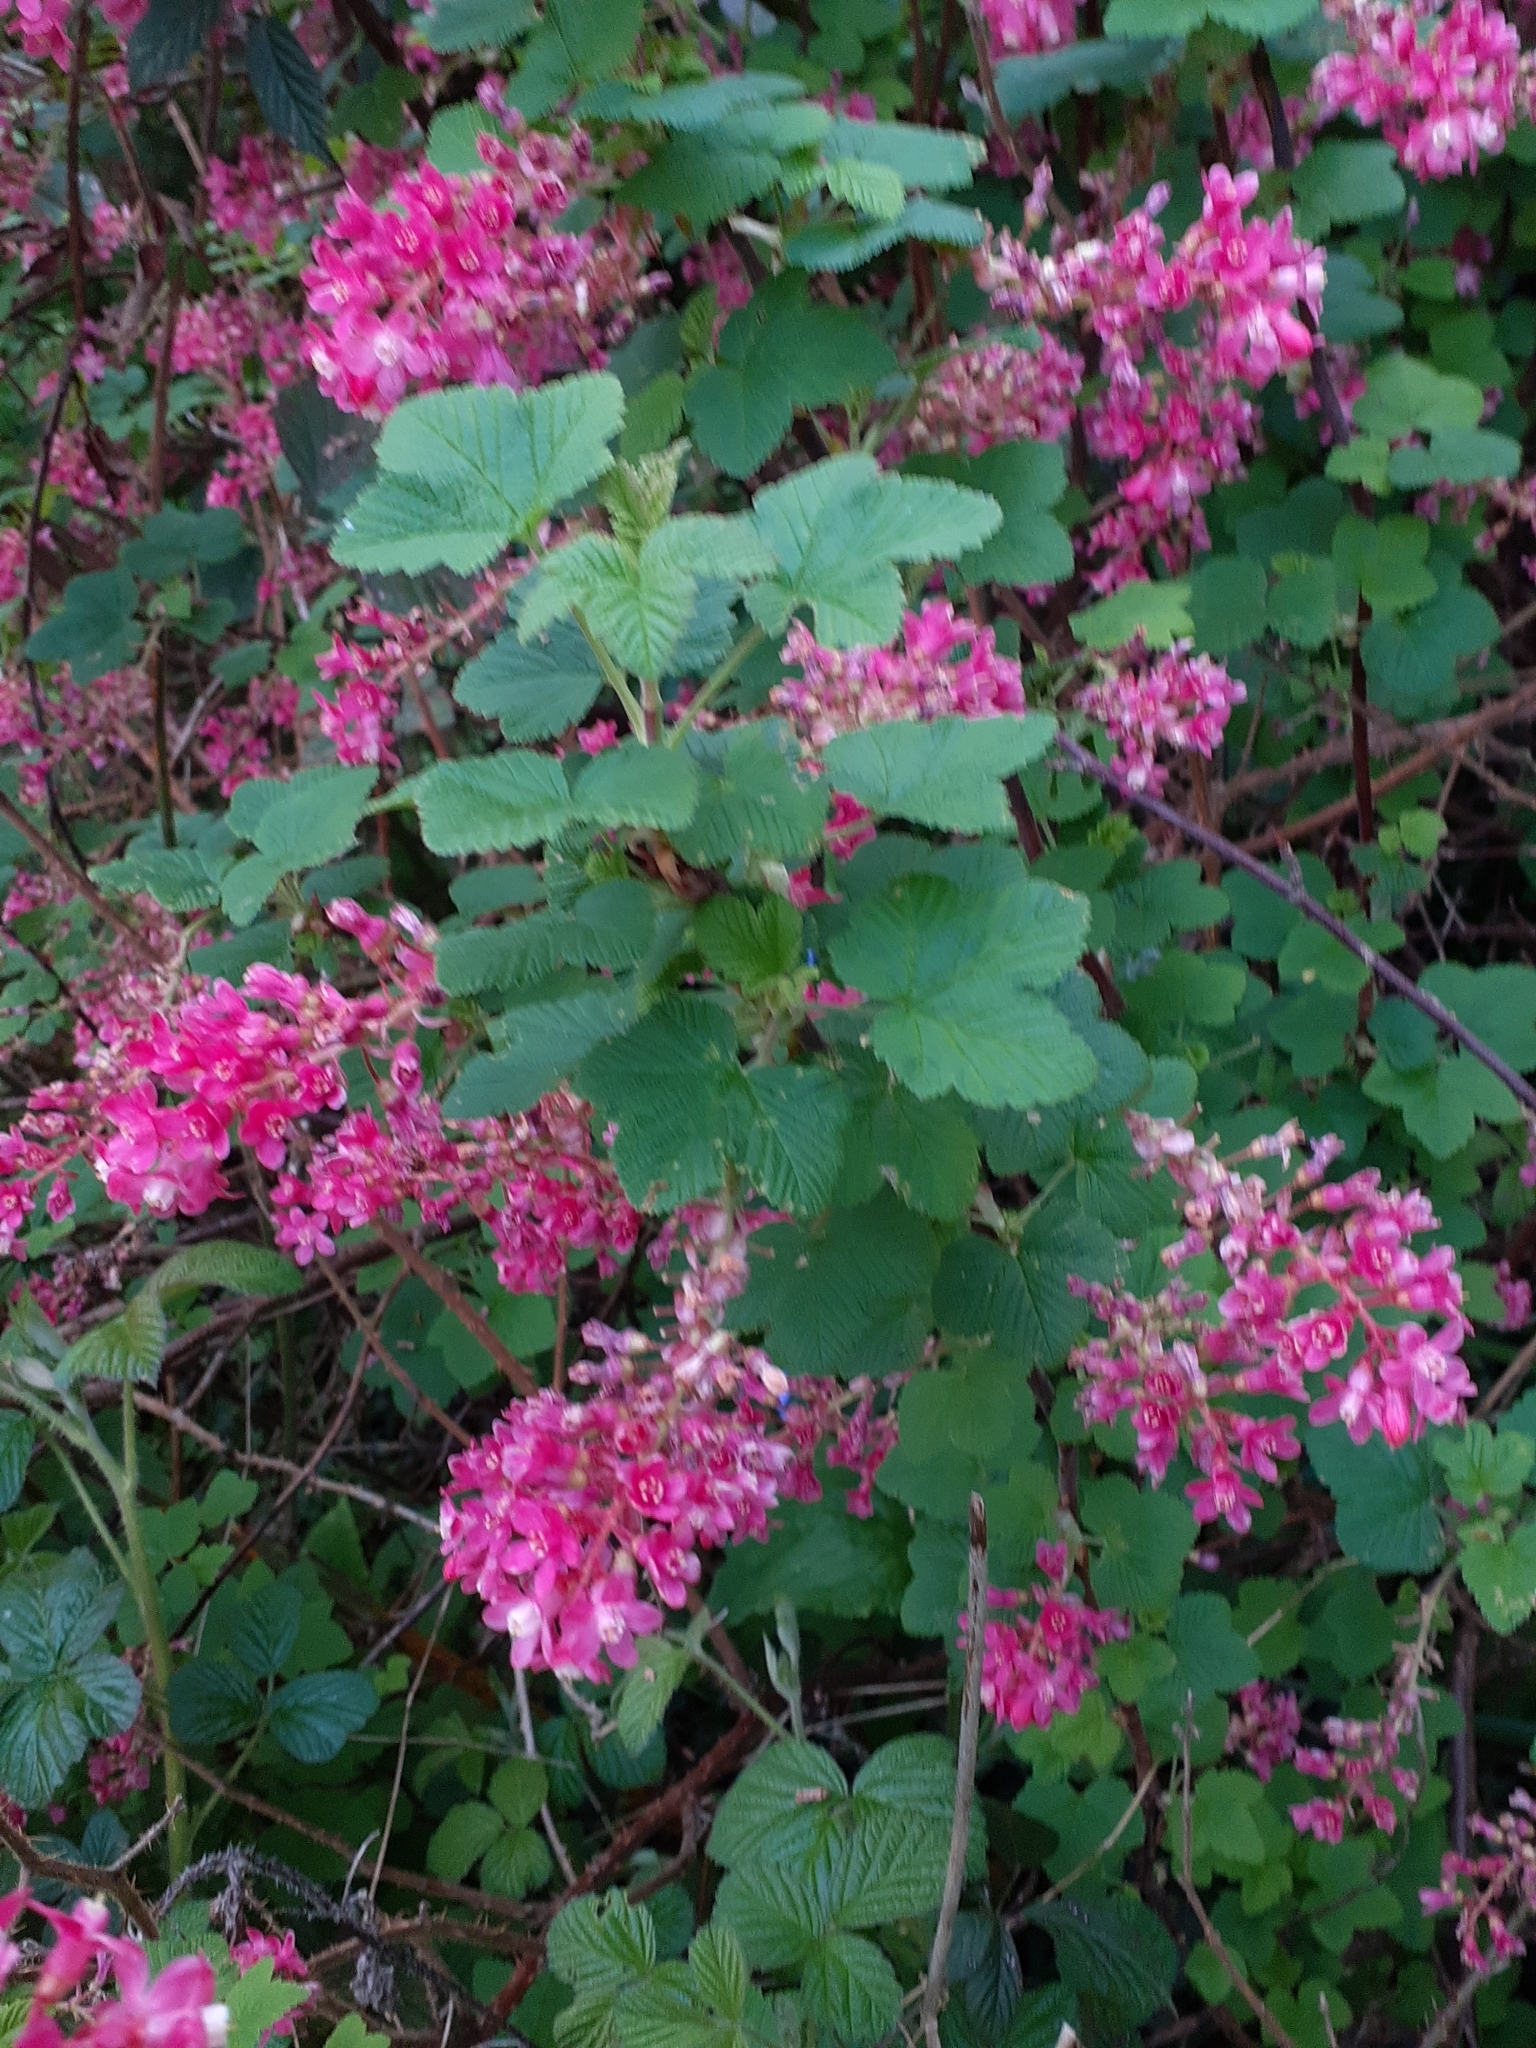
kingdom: Plantae
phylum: Tracheophyta
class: Magnoliopsida
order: Saxifragales
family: Grossulariaceae
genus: Ribes
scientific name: Ribes sanguineum
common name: Flowering currant
